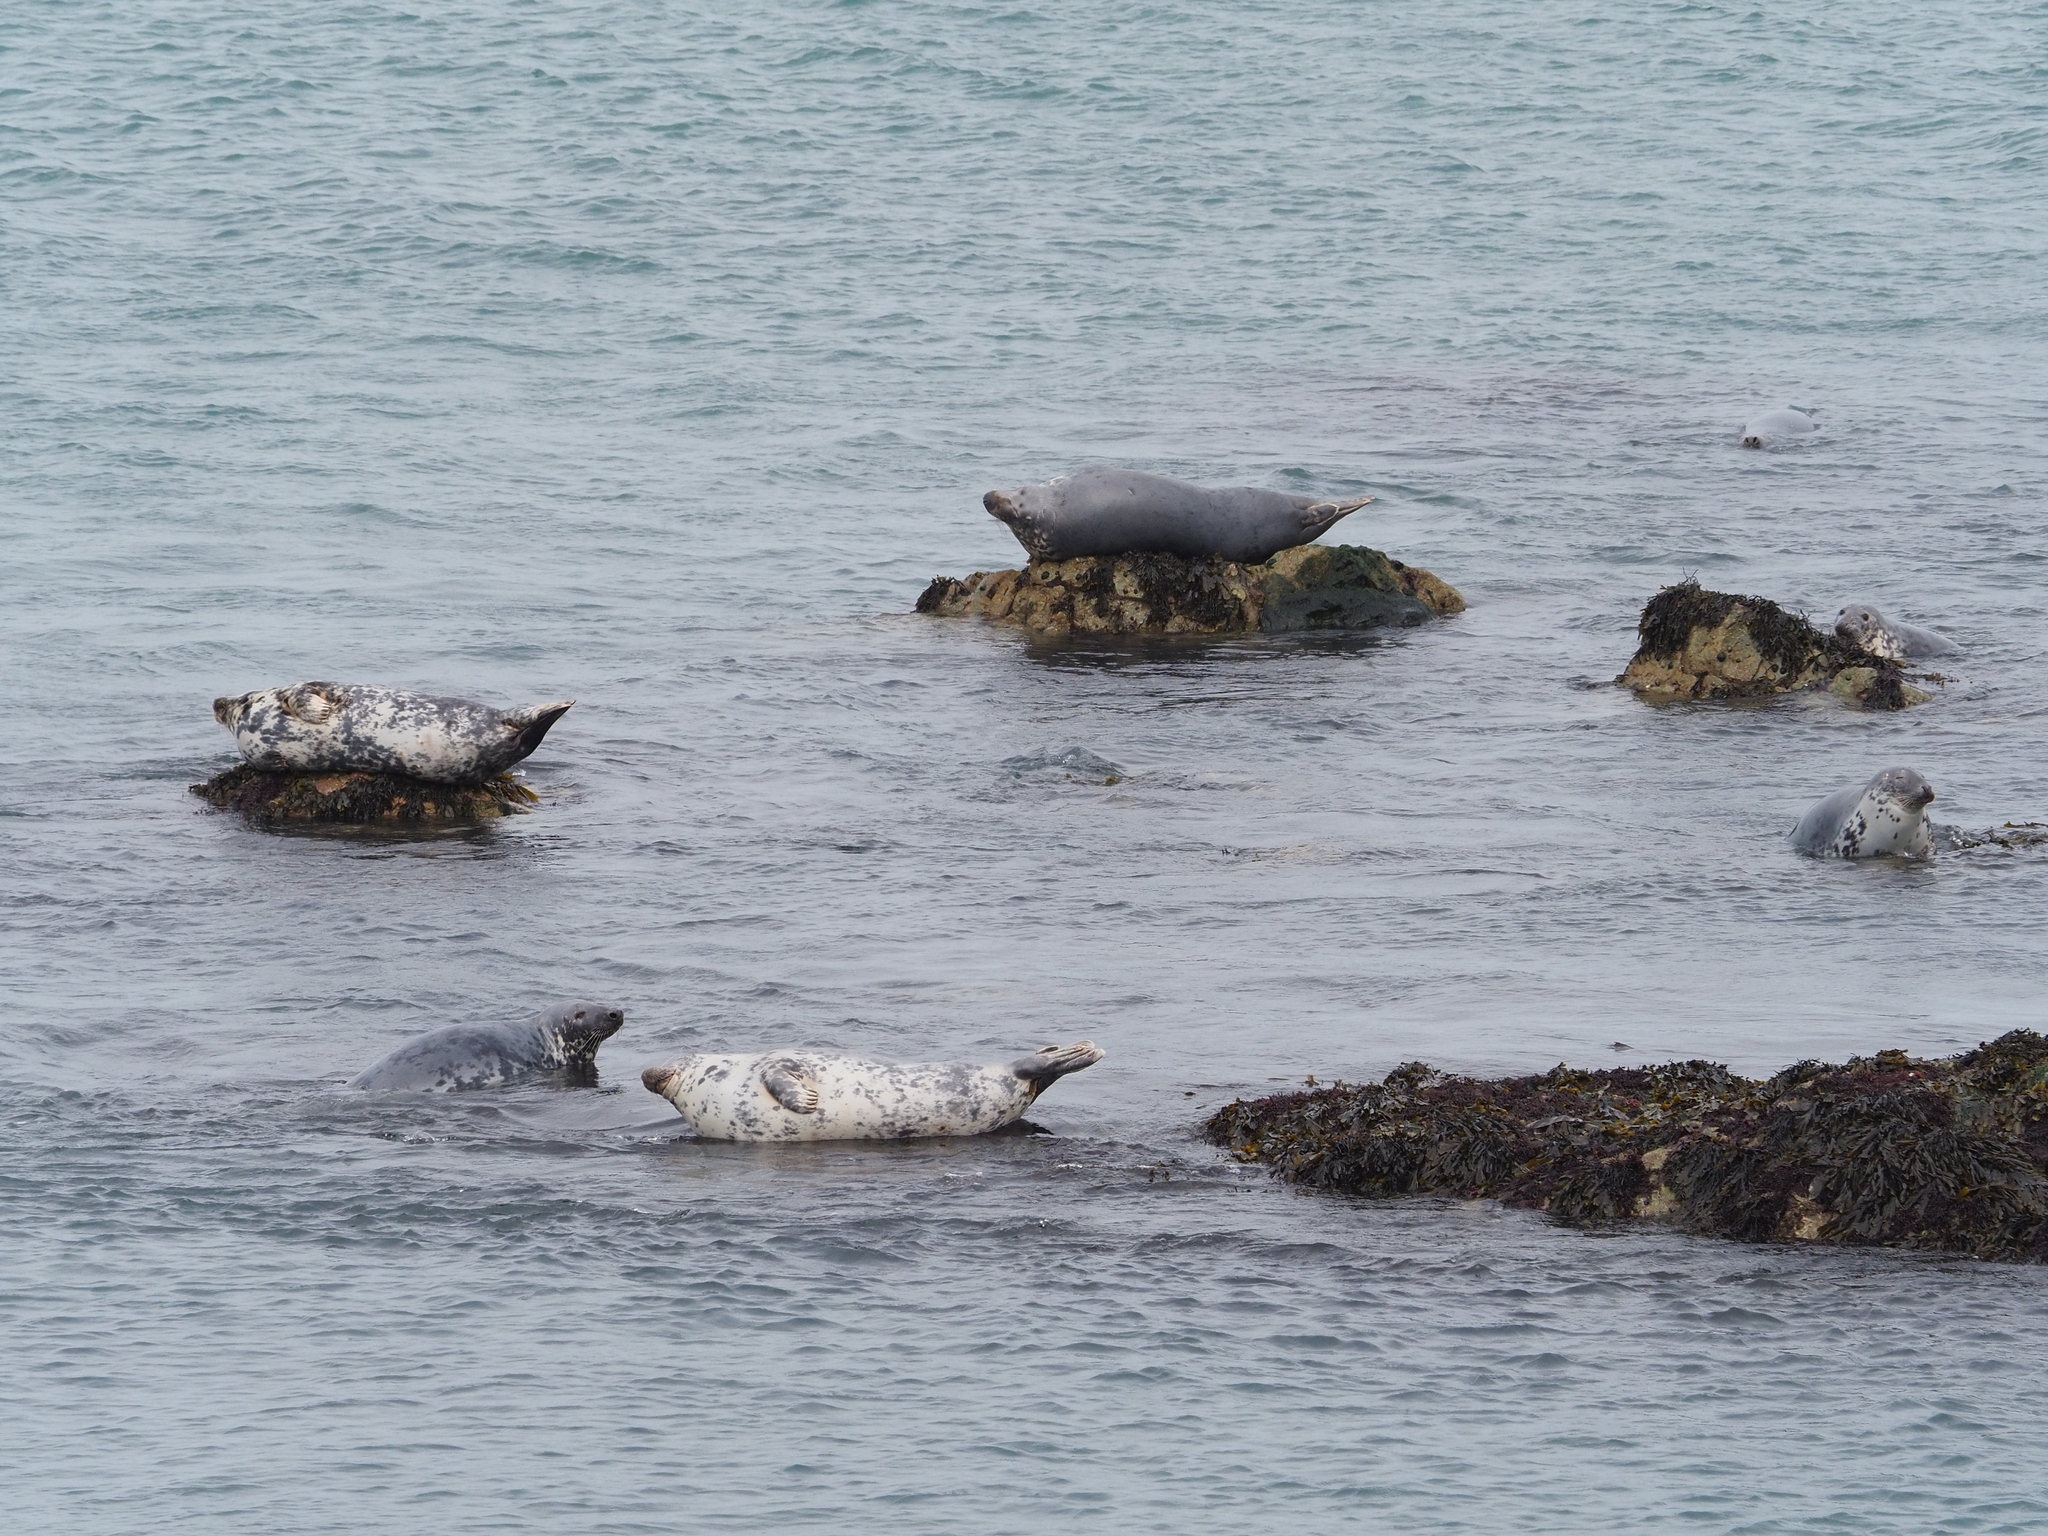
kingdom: Animalia
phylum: Chordata
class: Mammalia
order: Carnivora
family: Phocidae
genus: Halichoerus
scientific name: Halichoerus grypus
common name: Grey seal
